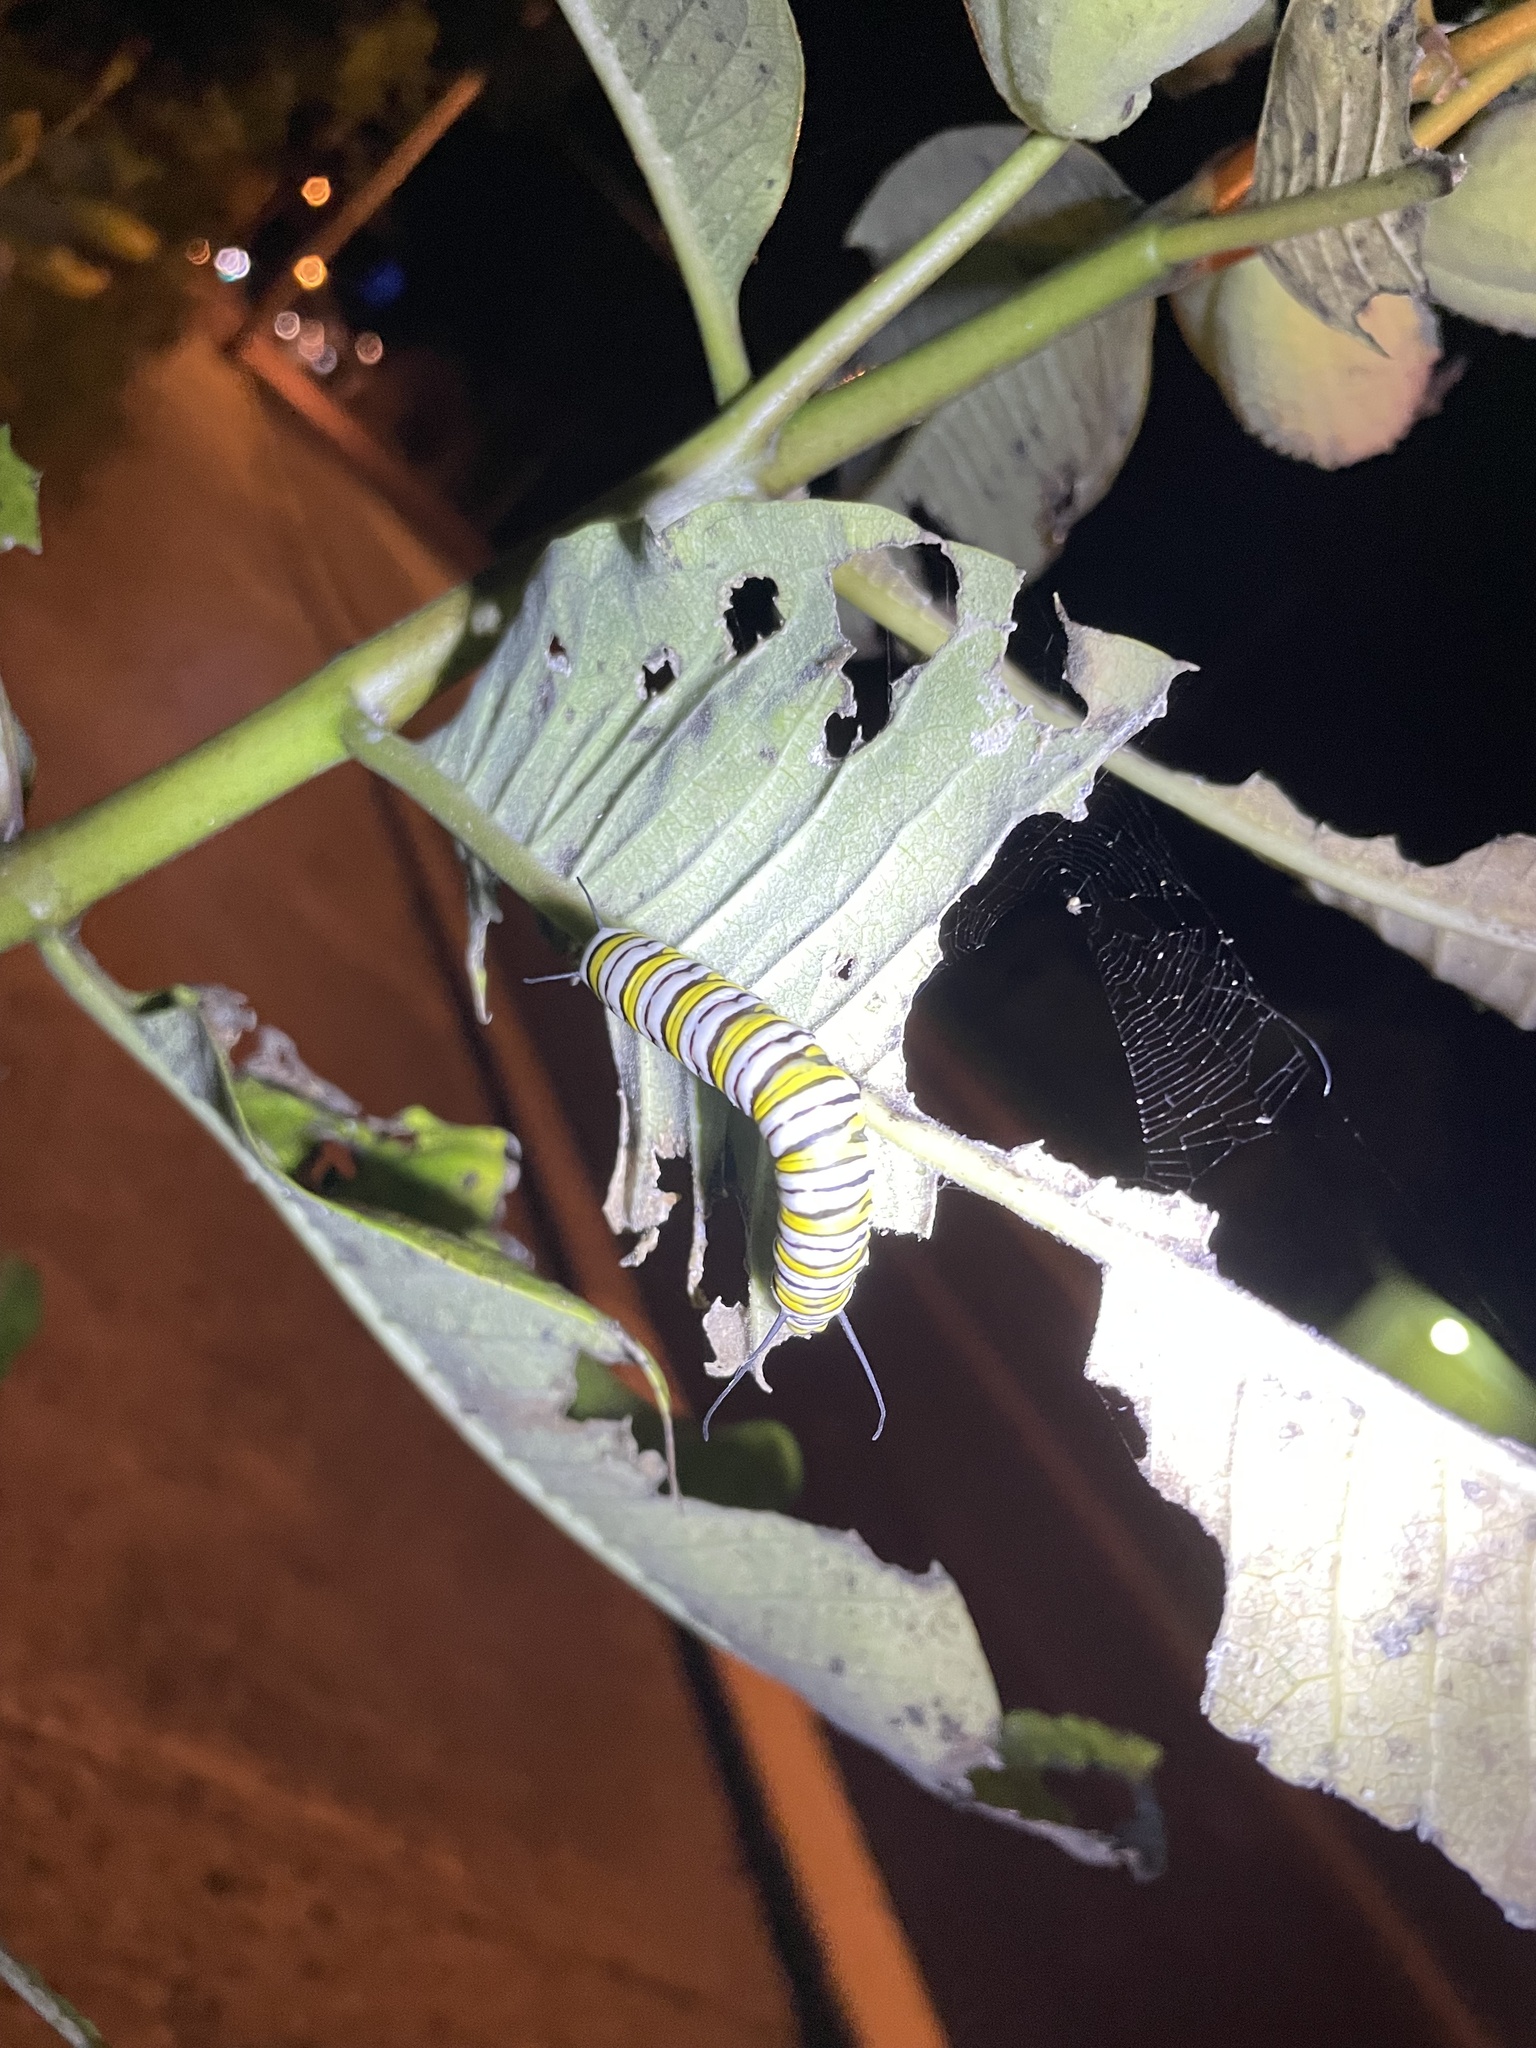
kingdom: Animalia
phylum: Arthropoda
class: Insecta
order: Lepidoptera
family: Nymphalidae
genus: Danaus
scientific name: Danaus plexippus
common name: Monarch
